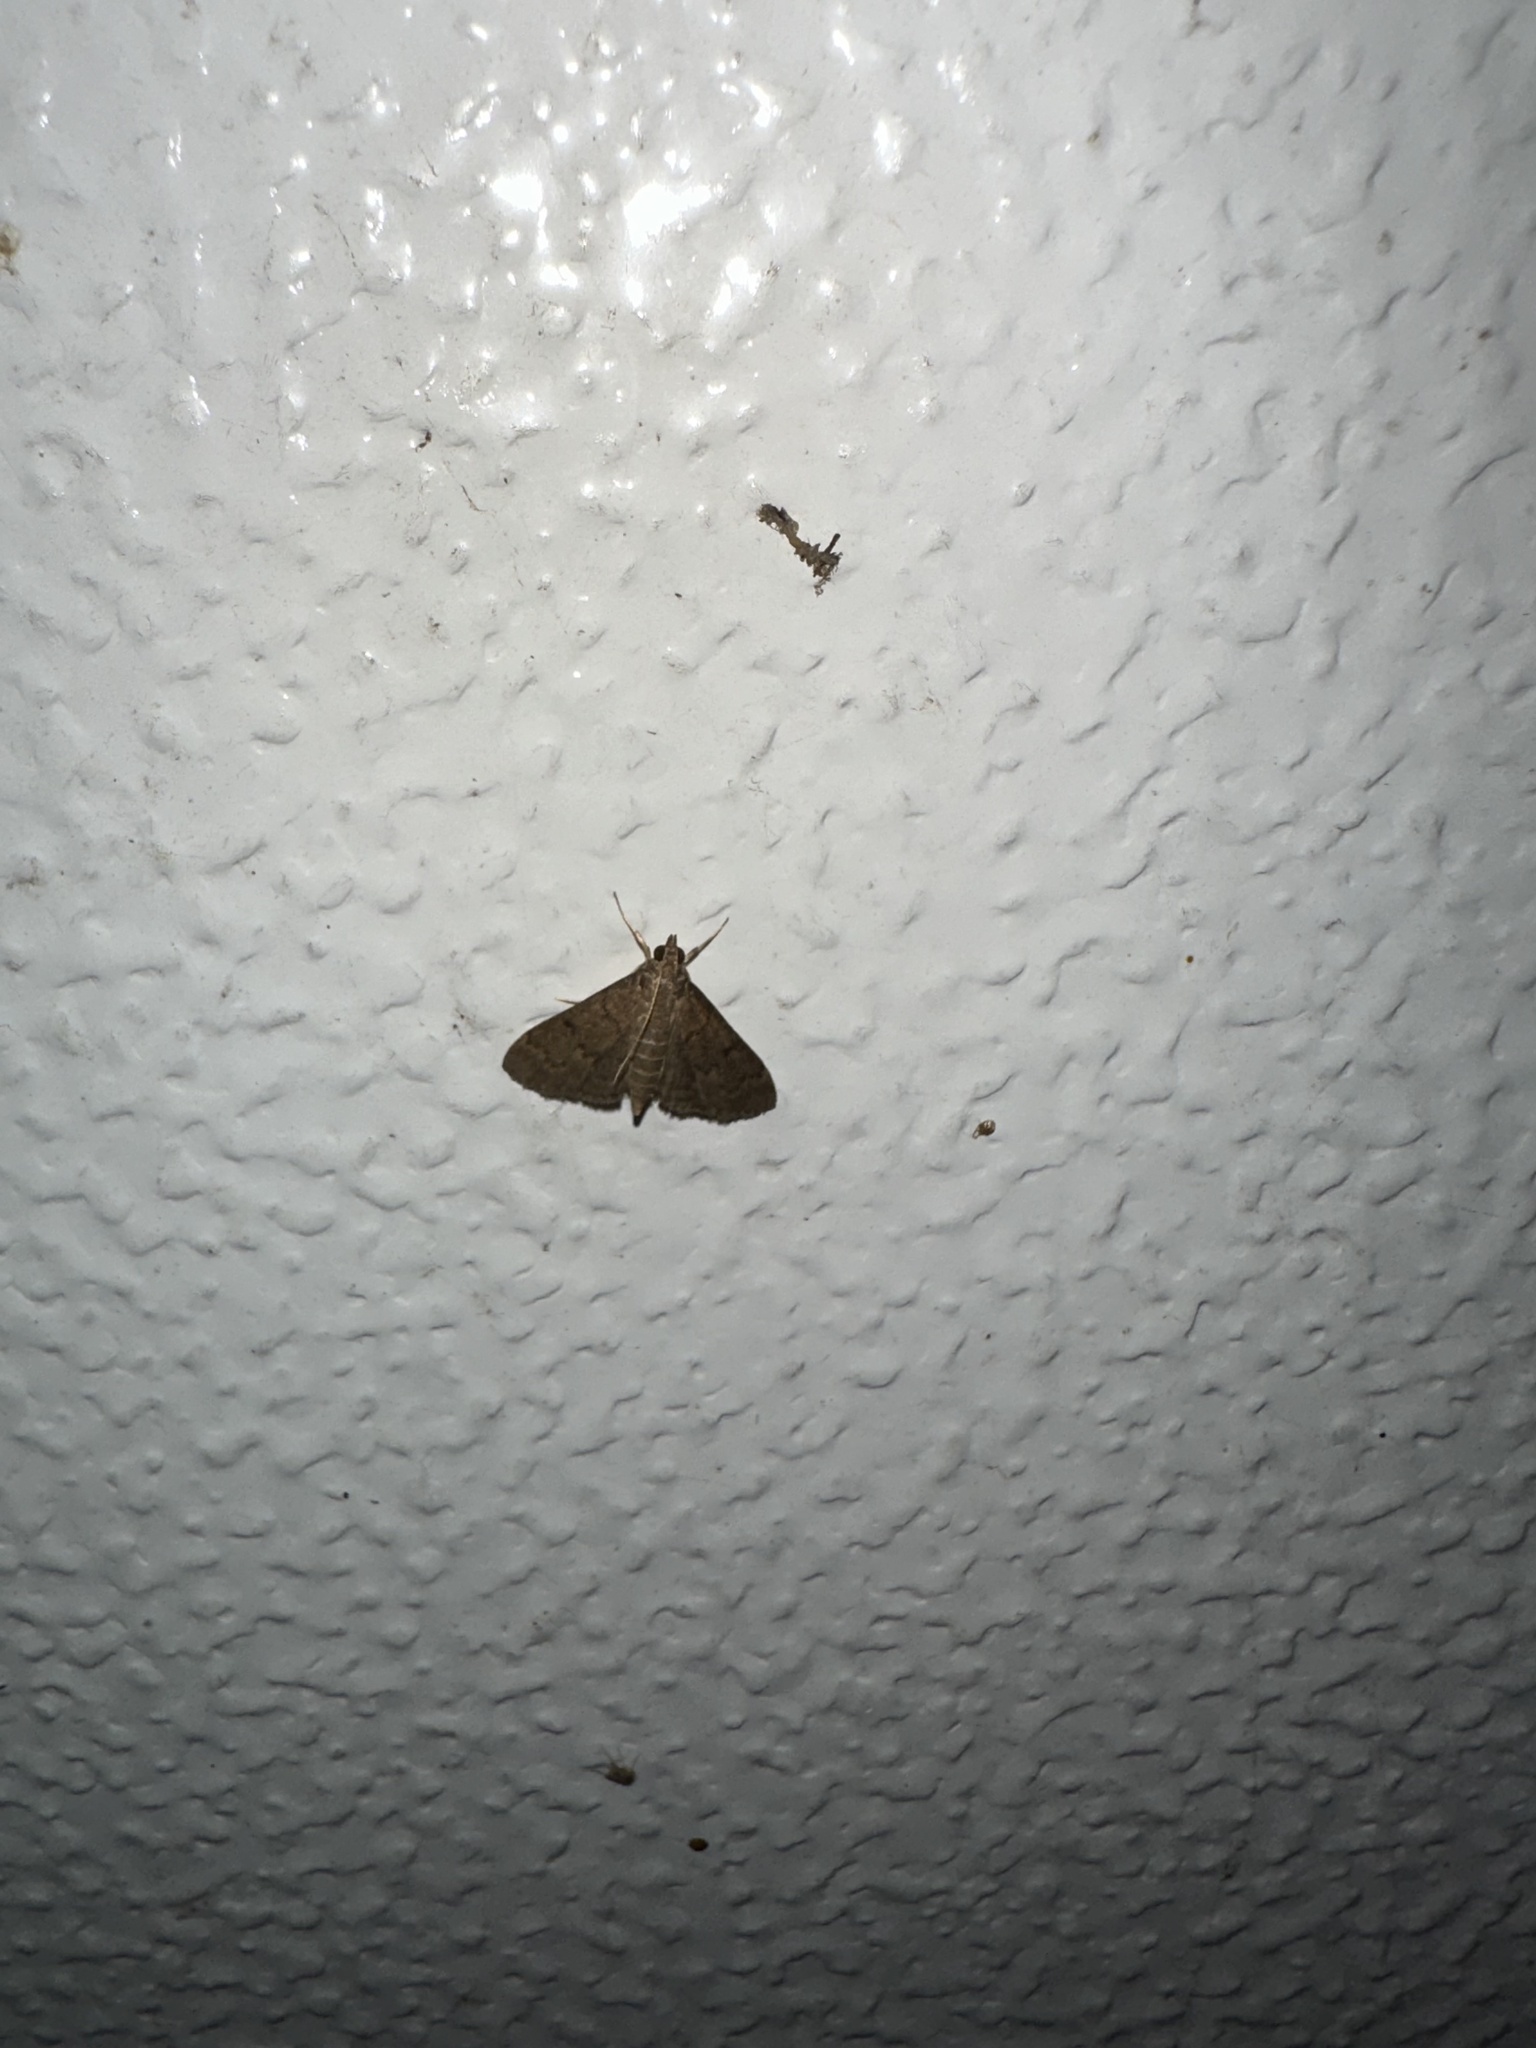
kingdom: Animalia
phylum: Arthropoda
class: Insecta
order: Lepidoptera
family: Crambidae
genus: Herpetogramma
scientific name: Herpetogramma phaeopteralis
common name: Dusky herpetogramma moth
